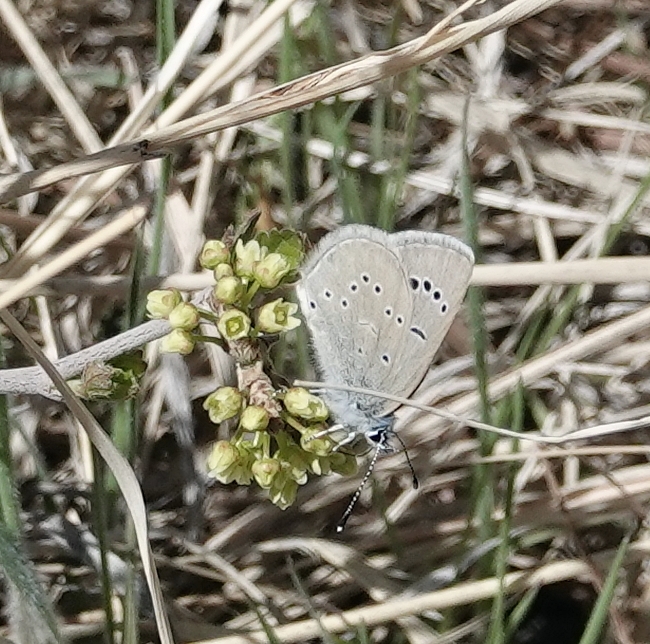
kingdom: Animalia
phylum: Arthropoda
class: Insecta
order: Lepidoptera
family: Lycaenidae
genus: Glaucopsyche
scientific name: Glaucopsyche lygdamus
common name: Silvery blue
